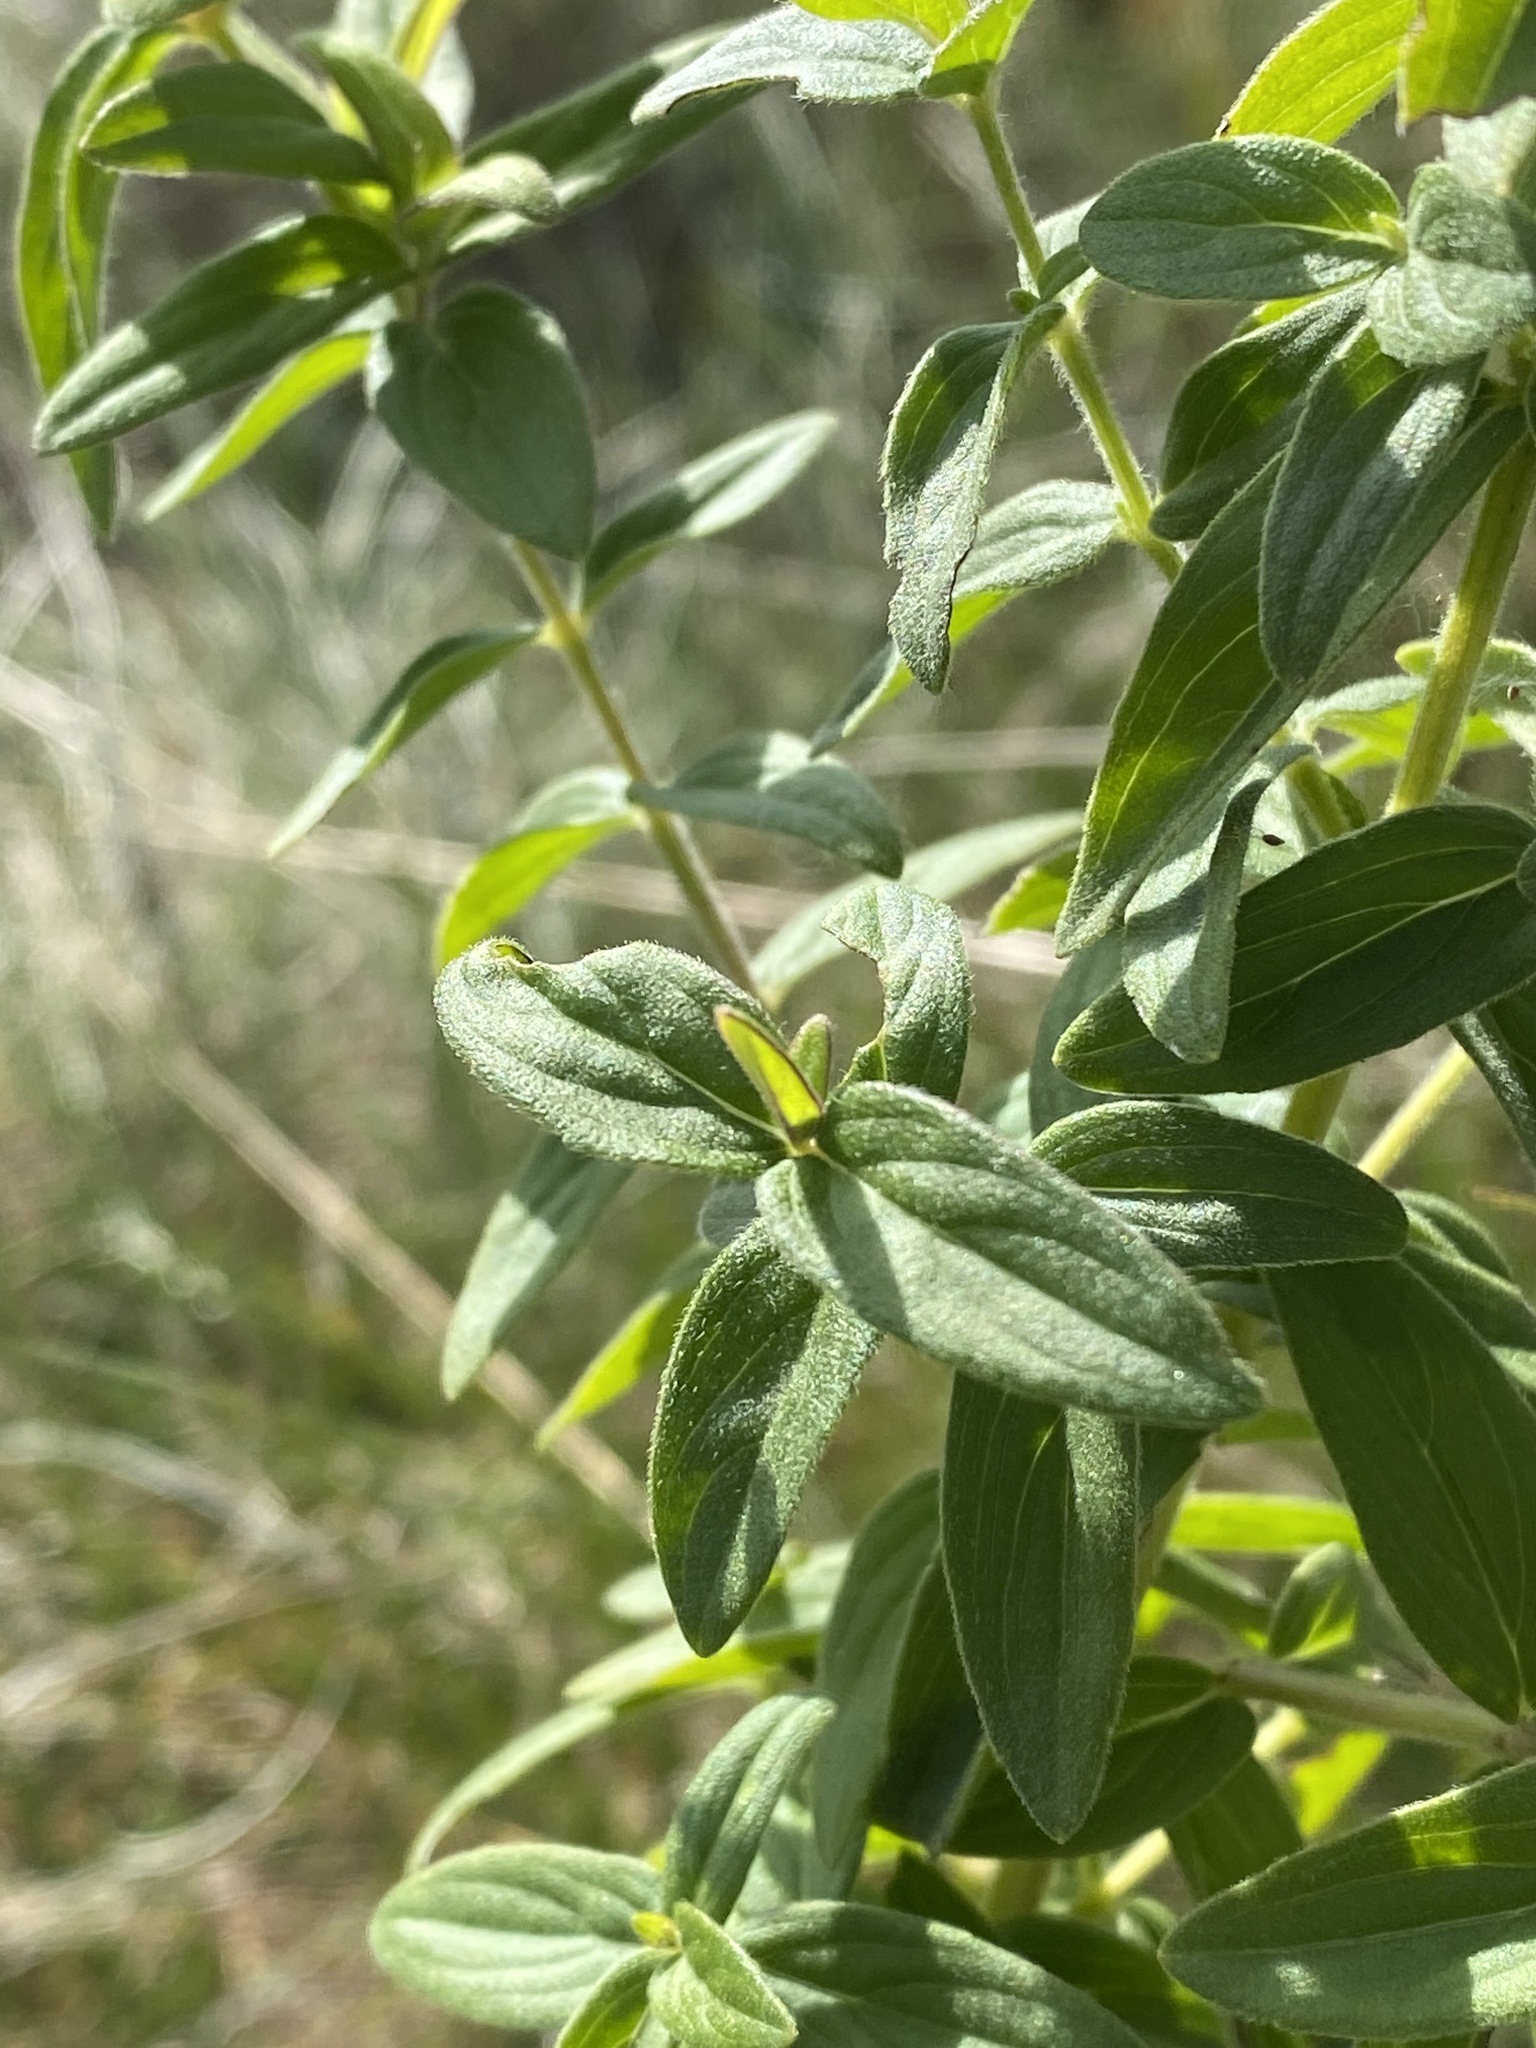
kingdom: Plantae
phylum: Tracheophyta
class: Magnoliopsida
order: Lamiales
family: Lamiaceae
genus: Pycnanthemum
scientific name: Pycnanthemum virginianum
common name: Virginia mountain-mint
